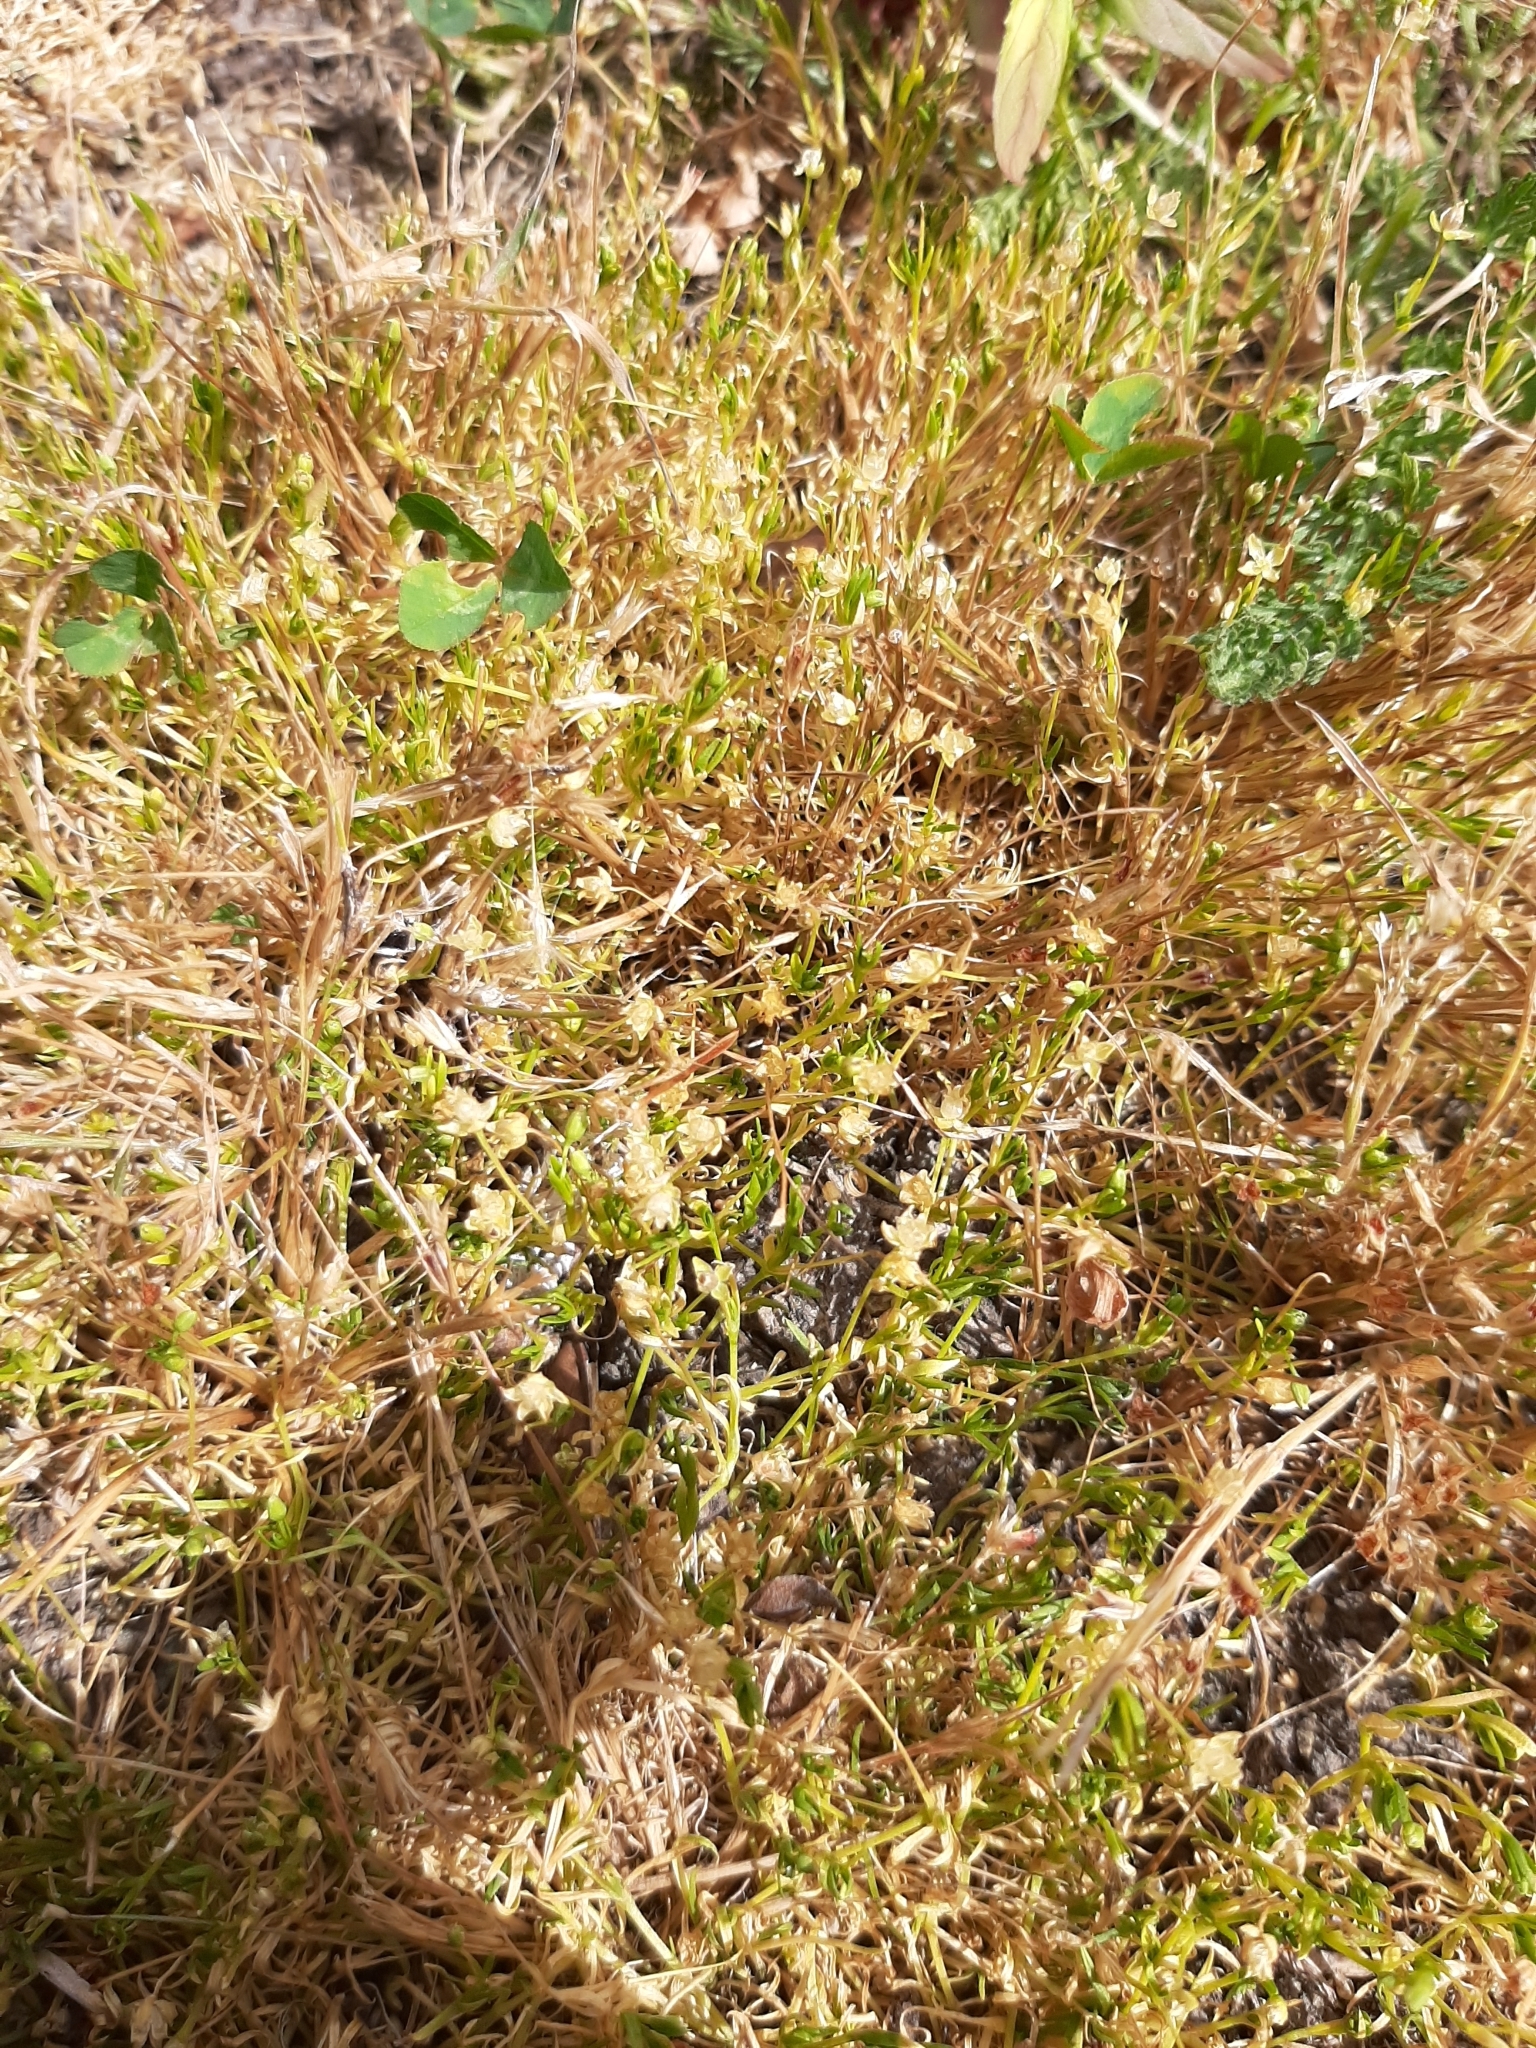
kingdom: Plantae
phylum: Tracheophyta
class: Magnoliopsida
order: Caryophyllales
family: Caryophyllaceae
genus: Sagina
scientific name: Sagina procumbens
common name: Procumbent pearlwort
